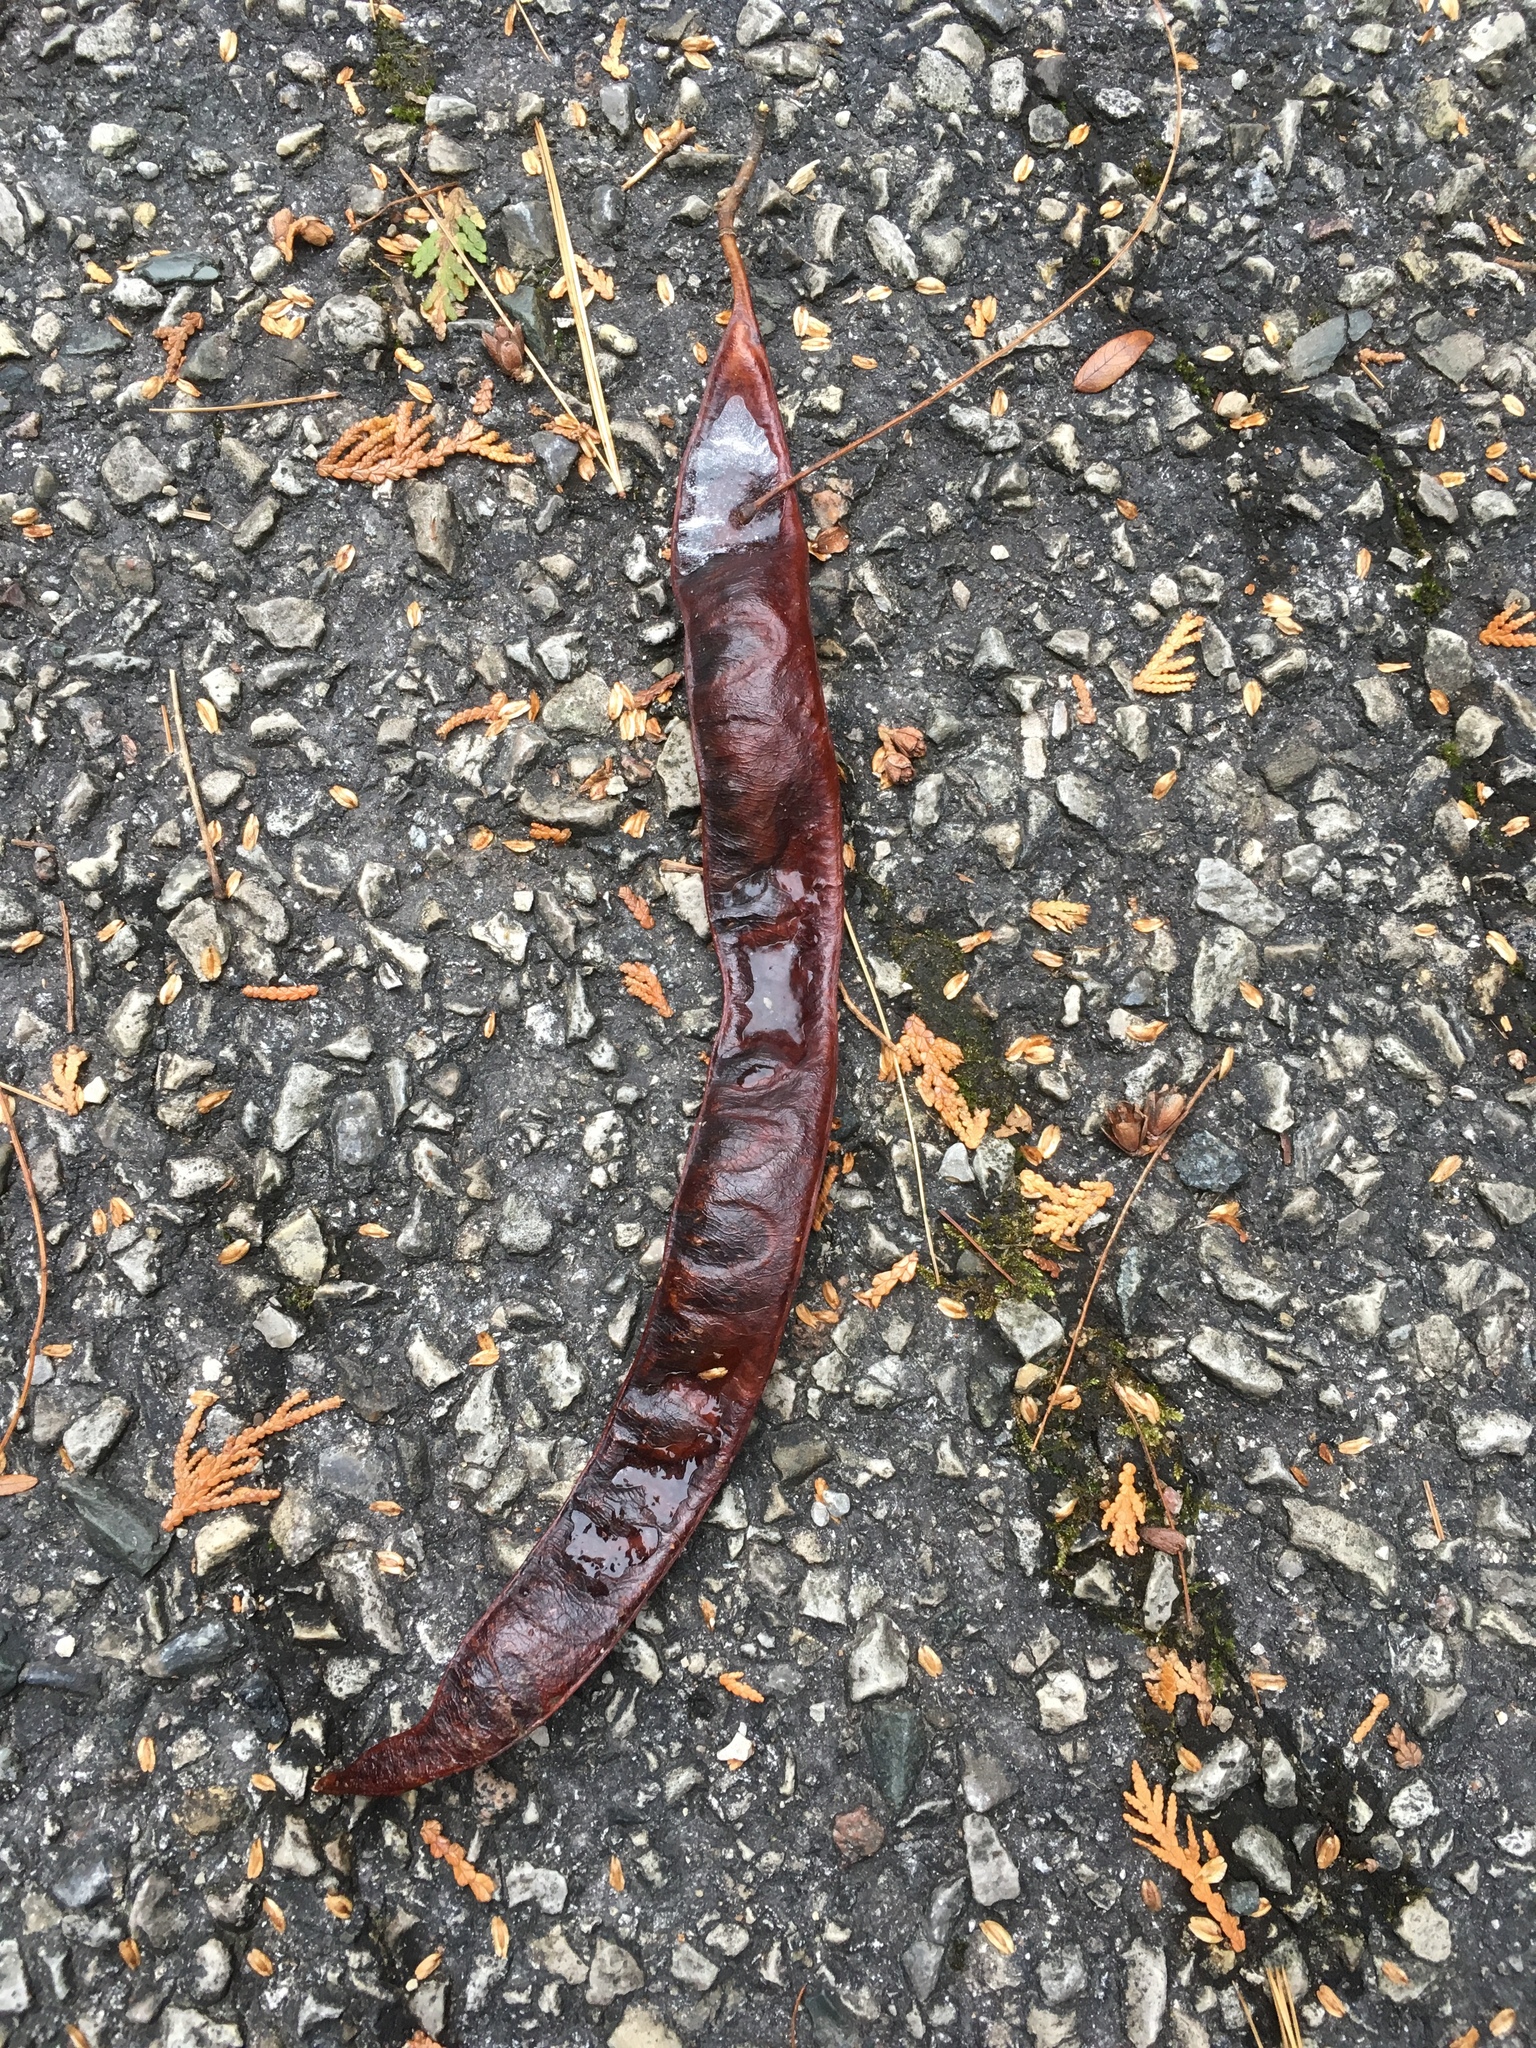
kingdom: Plantae
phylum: Tracheophyta
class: Magnoliopsida
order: Fabales
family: Fabaceae
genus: Gleditsia
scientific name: Gleditsia triacanthos
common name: Common honeylocust
